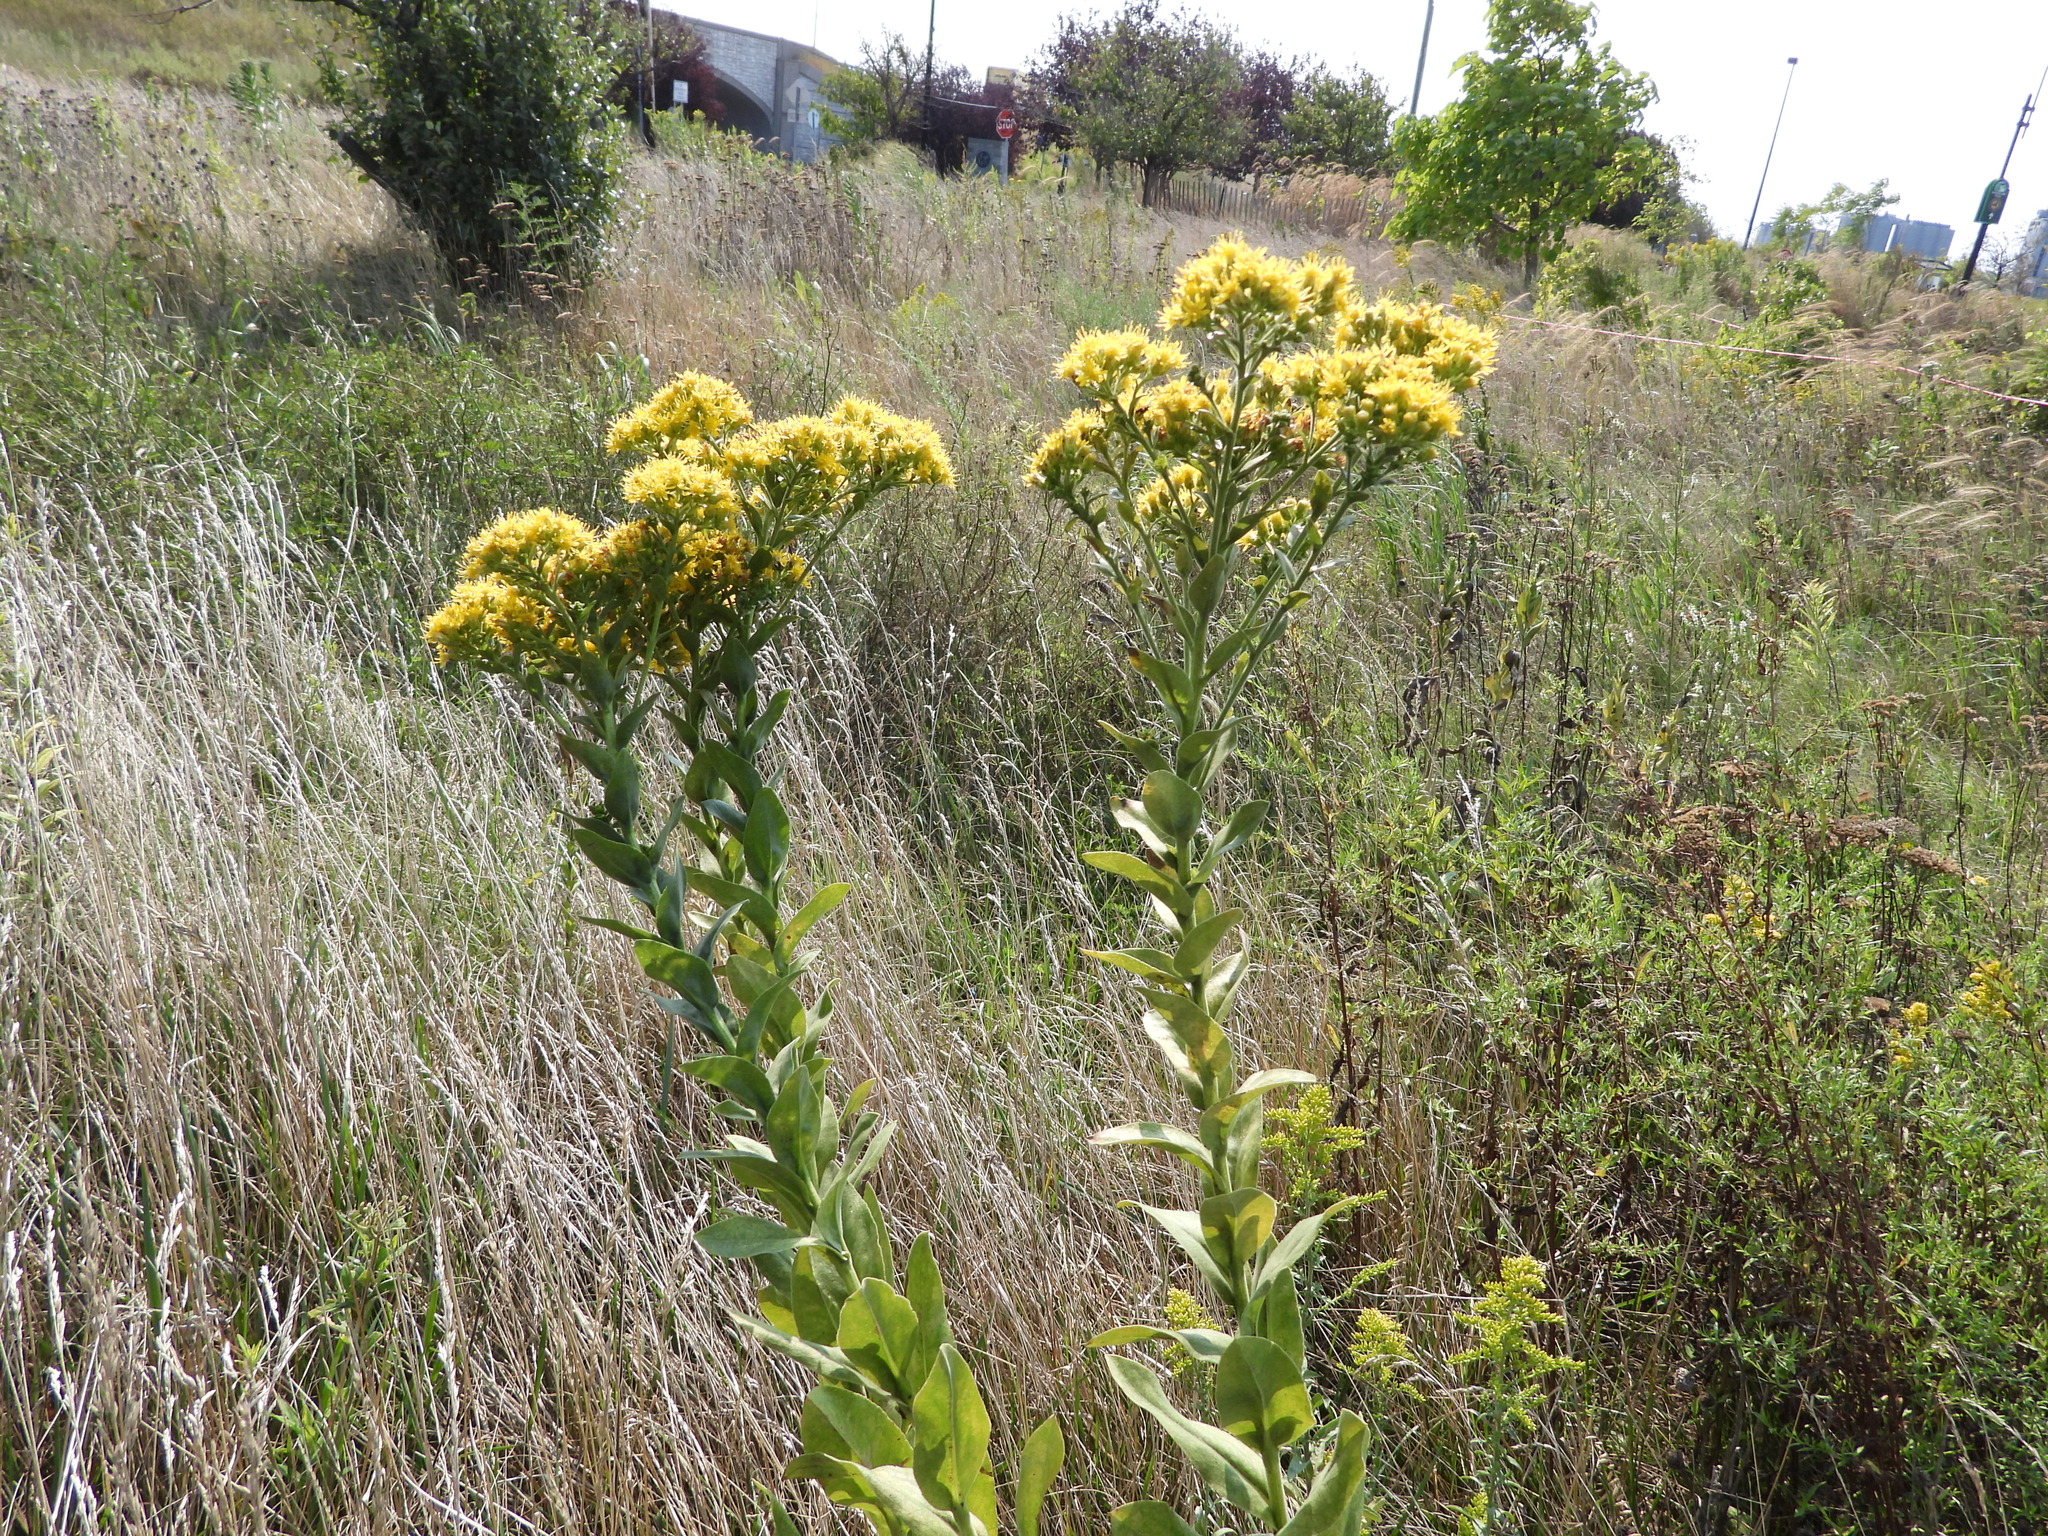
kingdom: Plantae
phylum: Tracheophyta
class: Magnoliopsida
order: Asterales
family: Asteraceae
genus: Solidago
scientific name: Solidago rigida
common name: Rigid goldenrod
